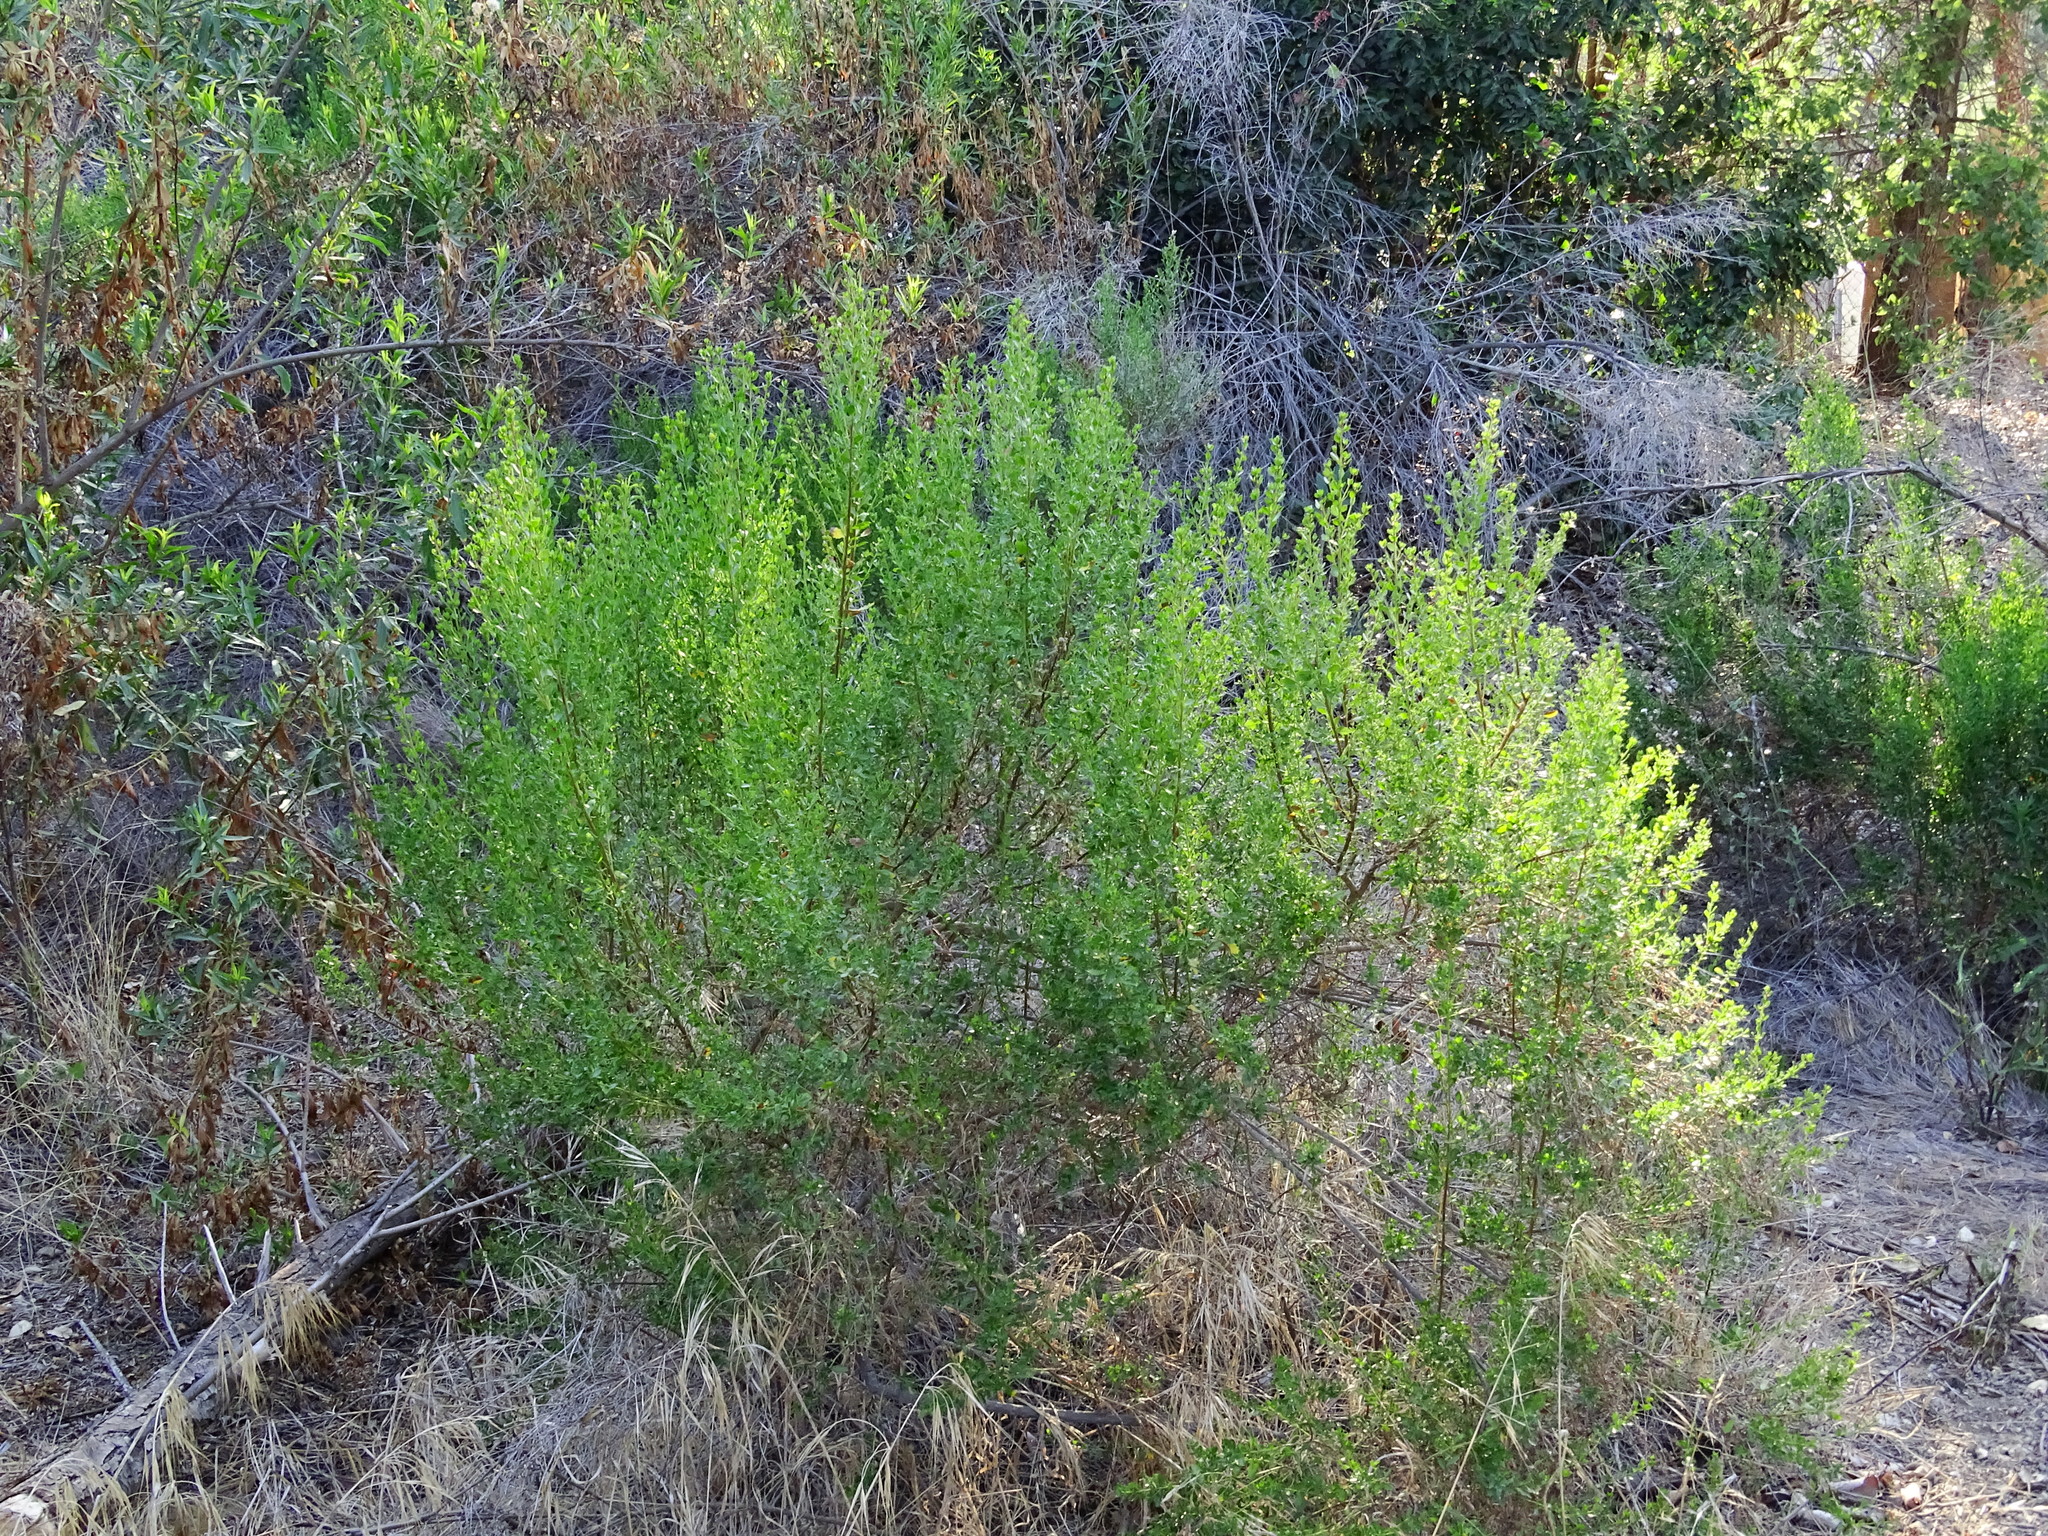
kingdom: Plantae
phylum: Tracheophyta
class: Magnoliopsida
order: Asterales
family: Asteraceae
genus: Baccharis
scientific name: Baccharis pilularis
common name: Coyotebrush
